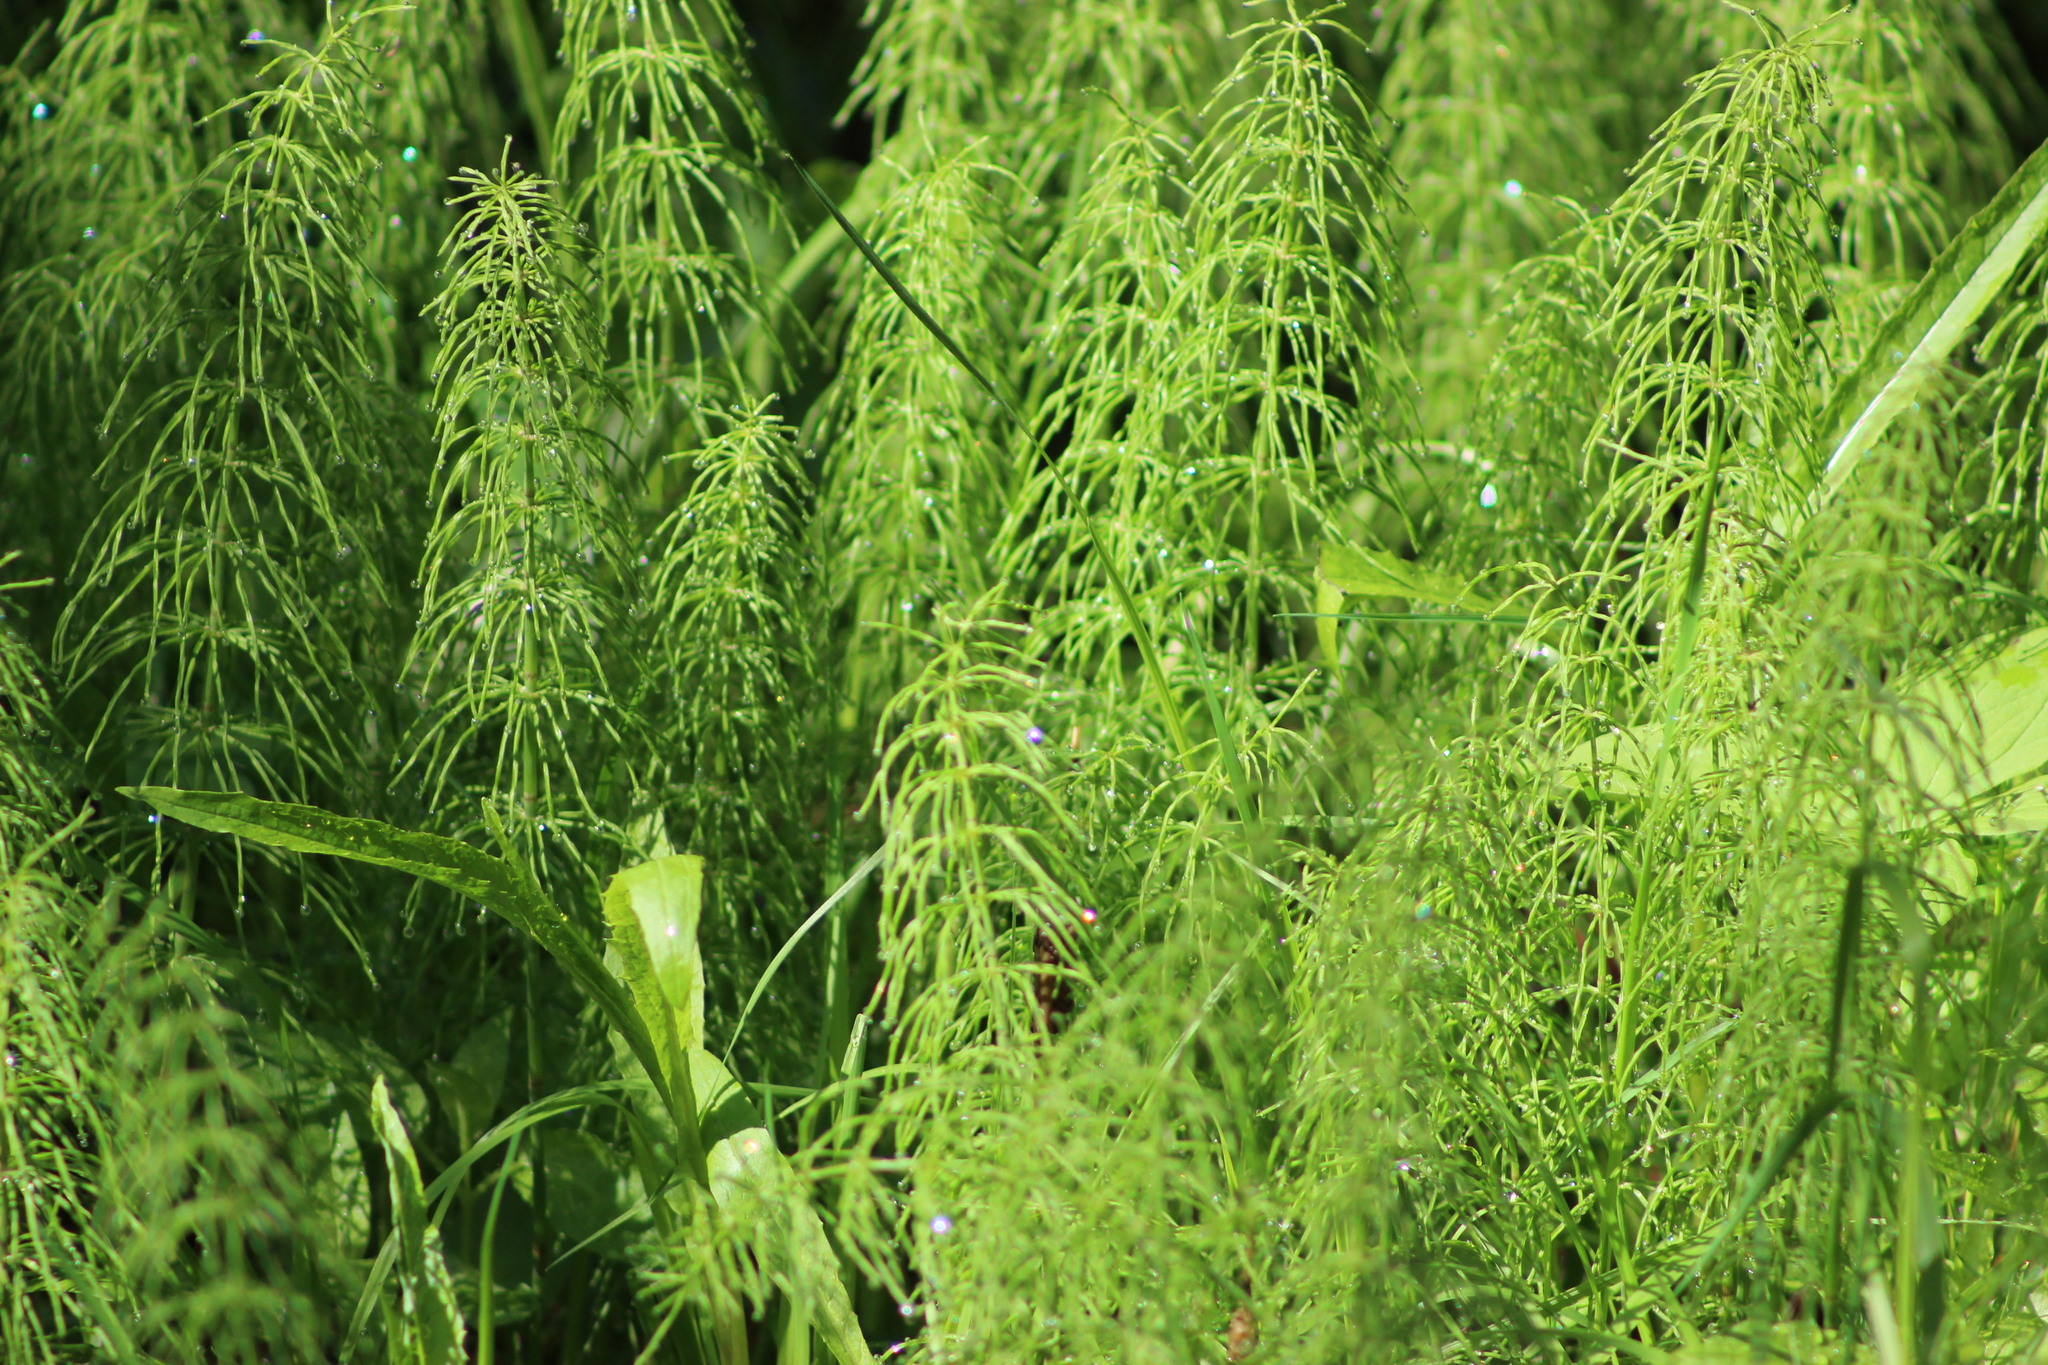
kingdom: Plantae
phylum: Tracheophyta
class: Polypodiopsida
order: Equisetales
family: Equisetaceae
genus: Equisetum
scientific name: Equisetum pratense
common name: Meadow horsetail
